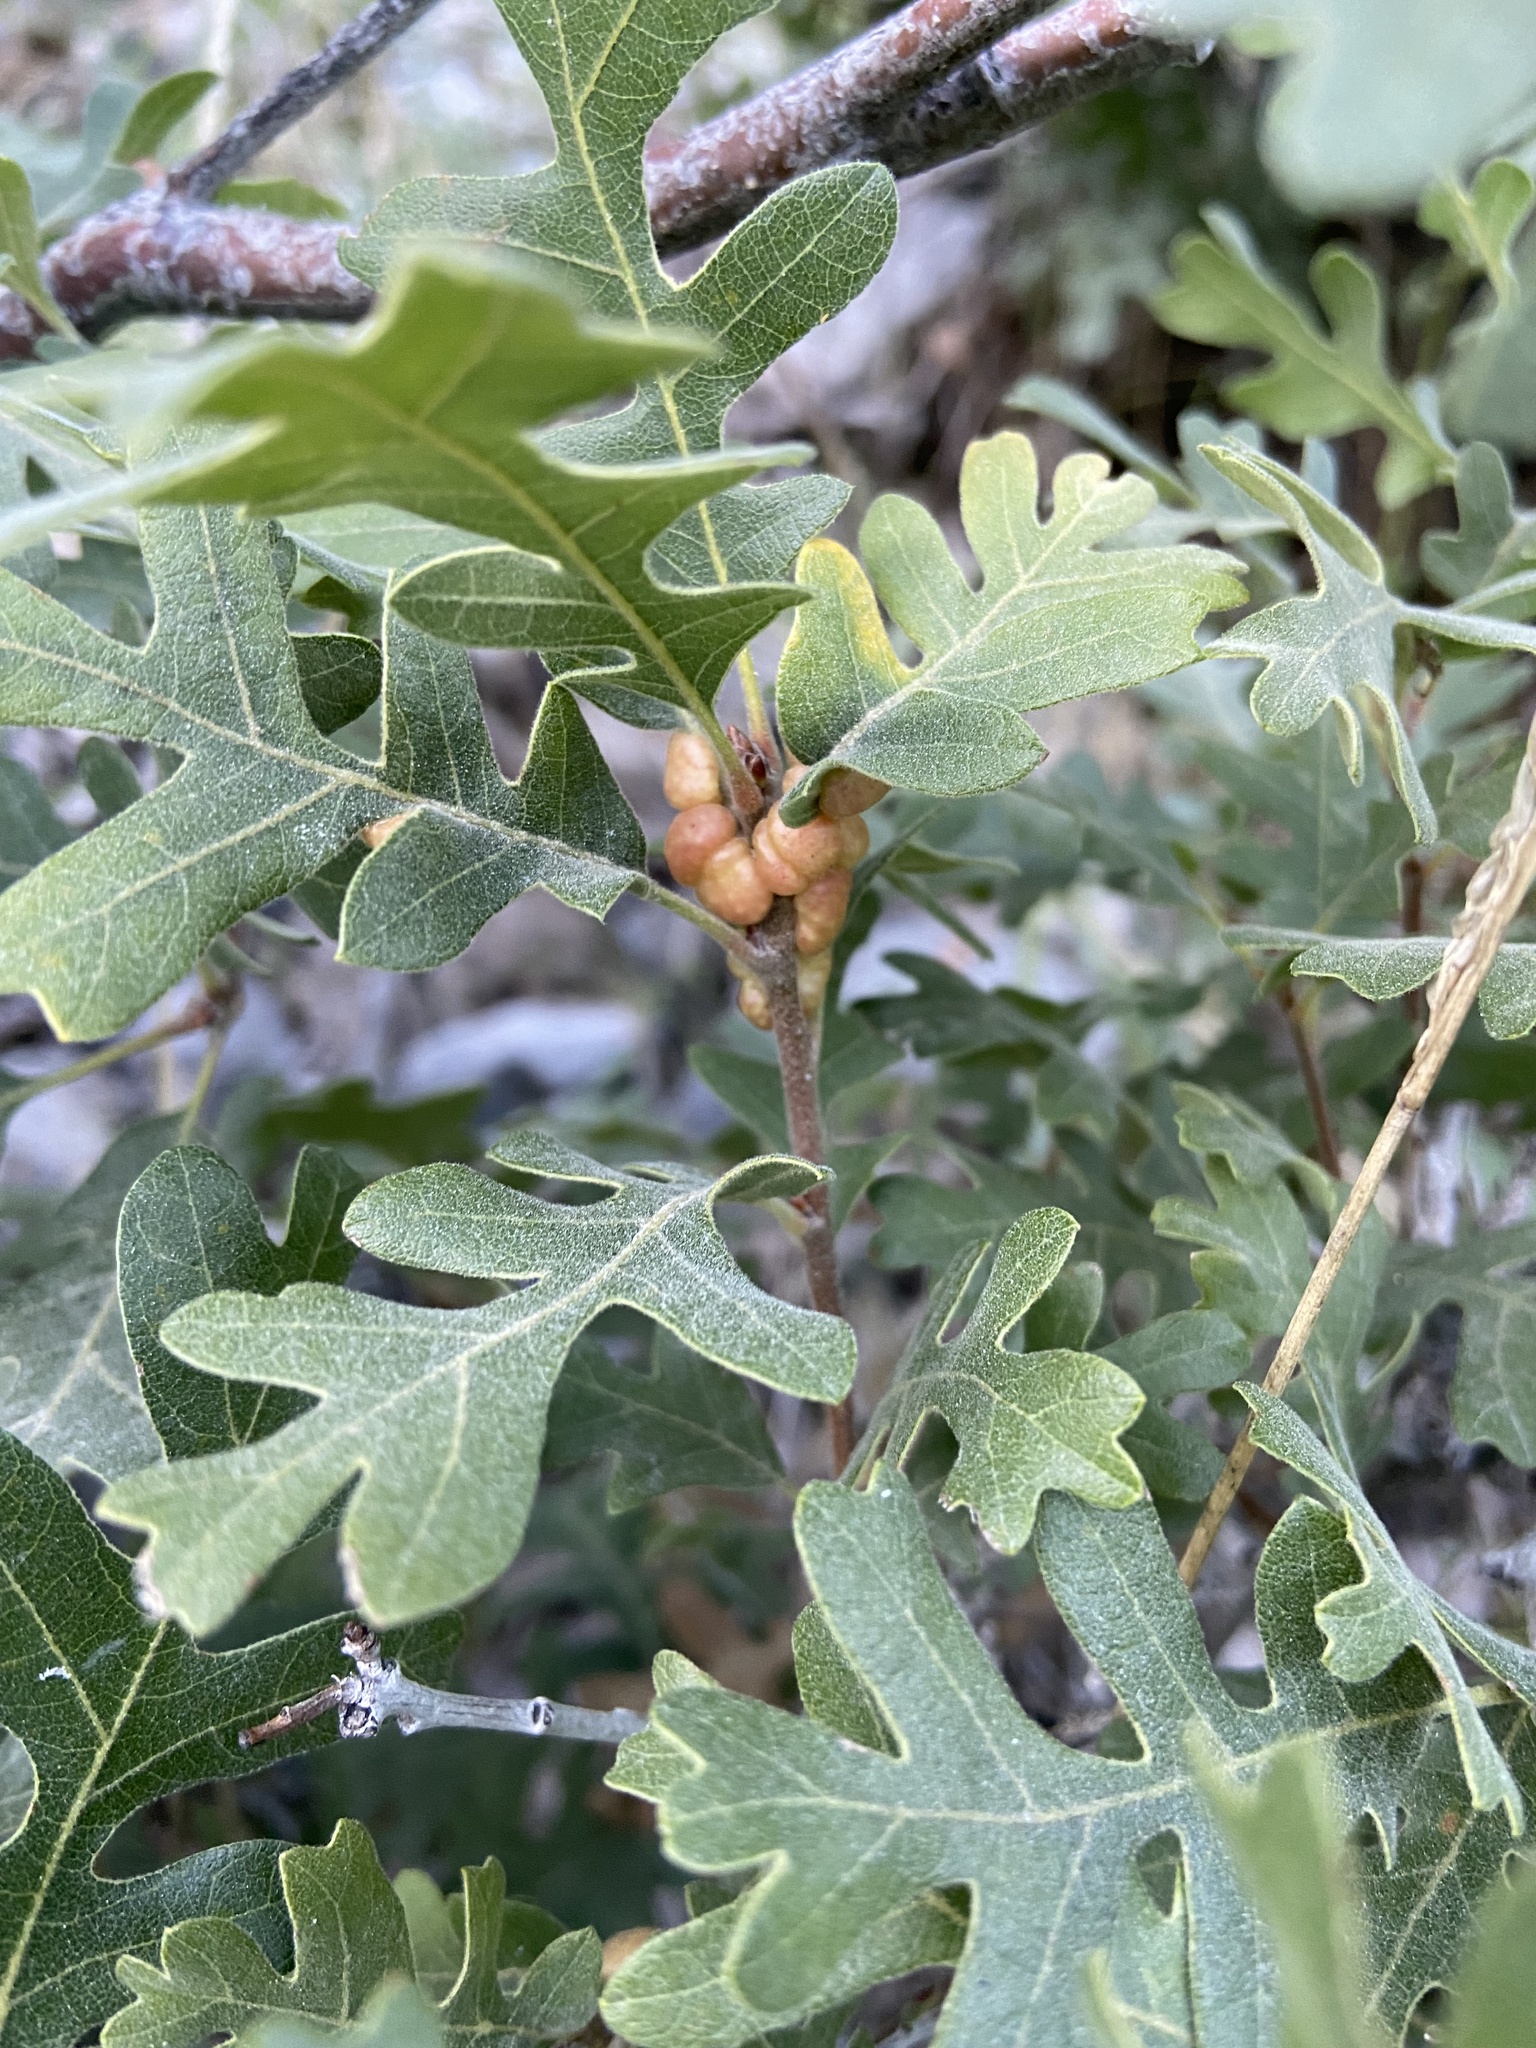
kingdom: Animalia
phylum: Arthropoda
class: Insecta
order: Hymenoptera
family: Cynipidae
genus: Trigonaspis
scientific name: Trigonaspis
